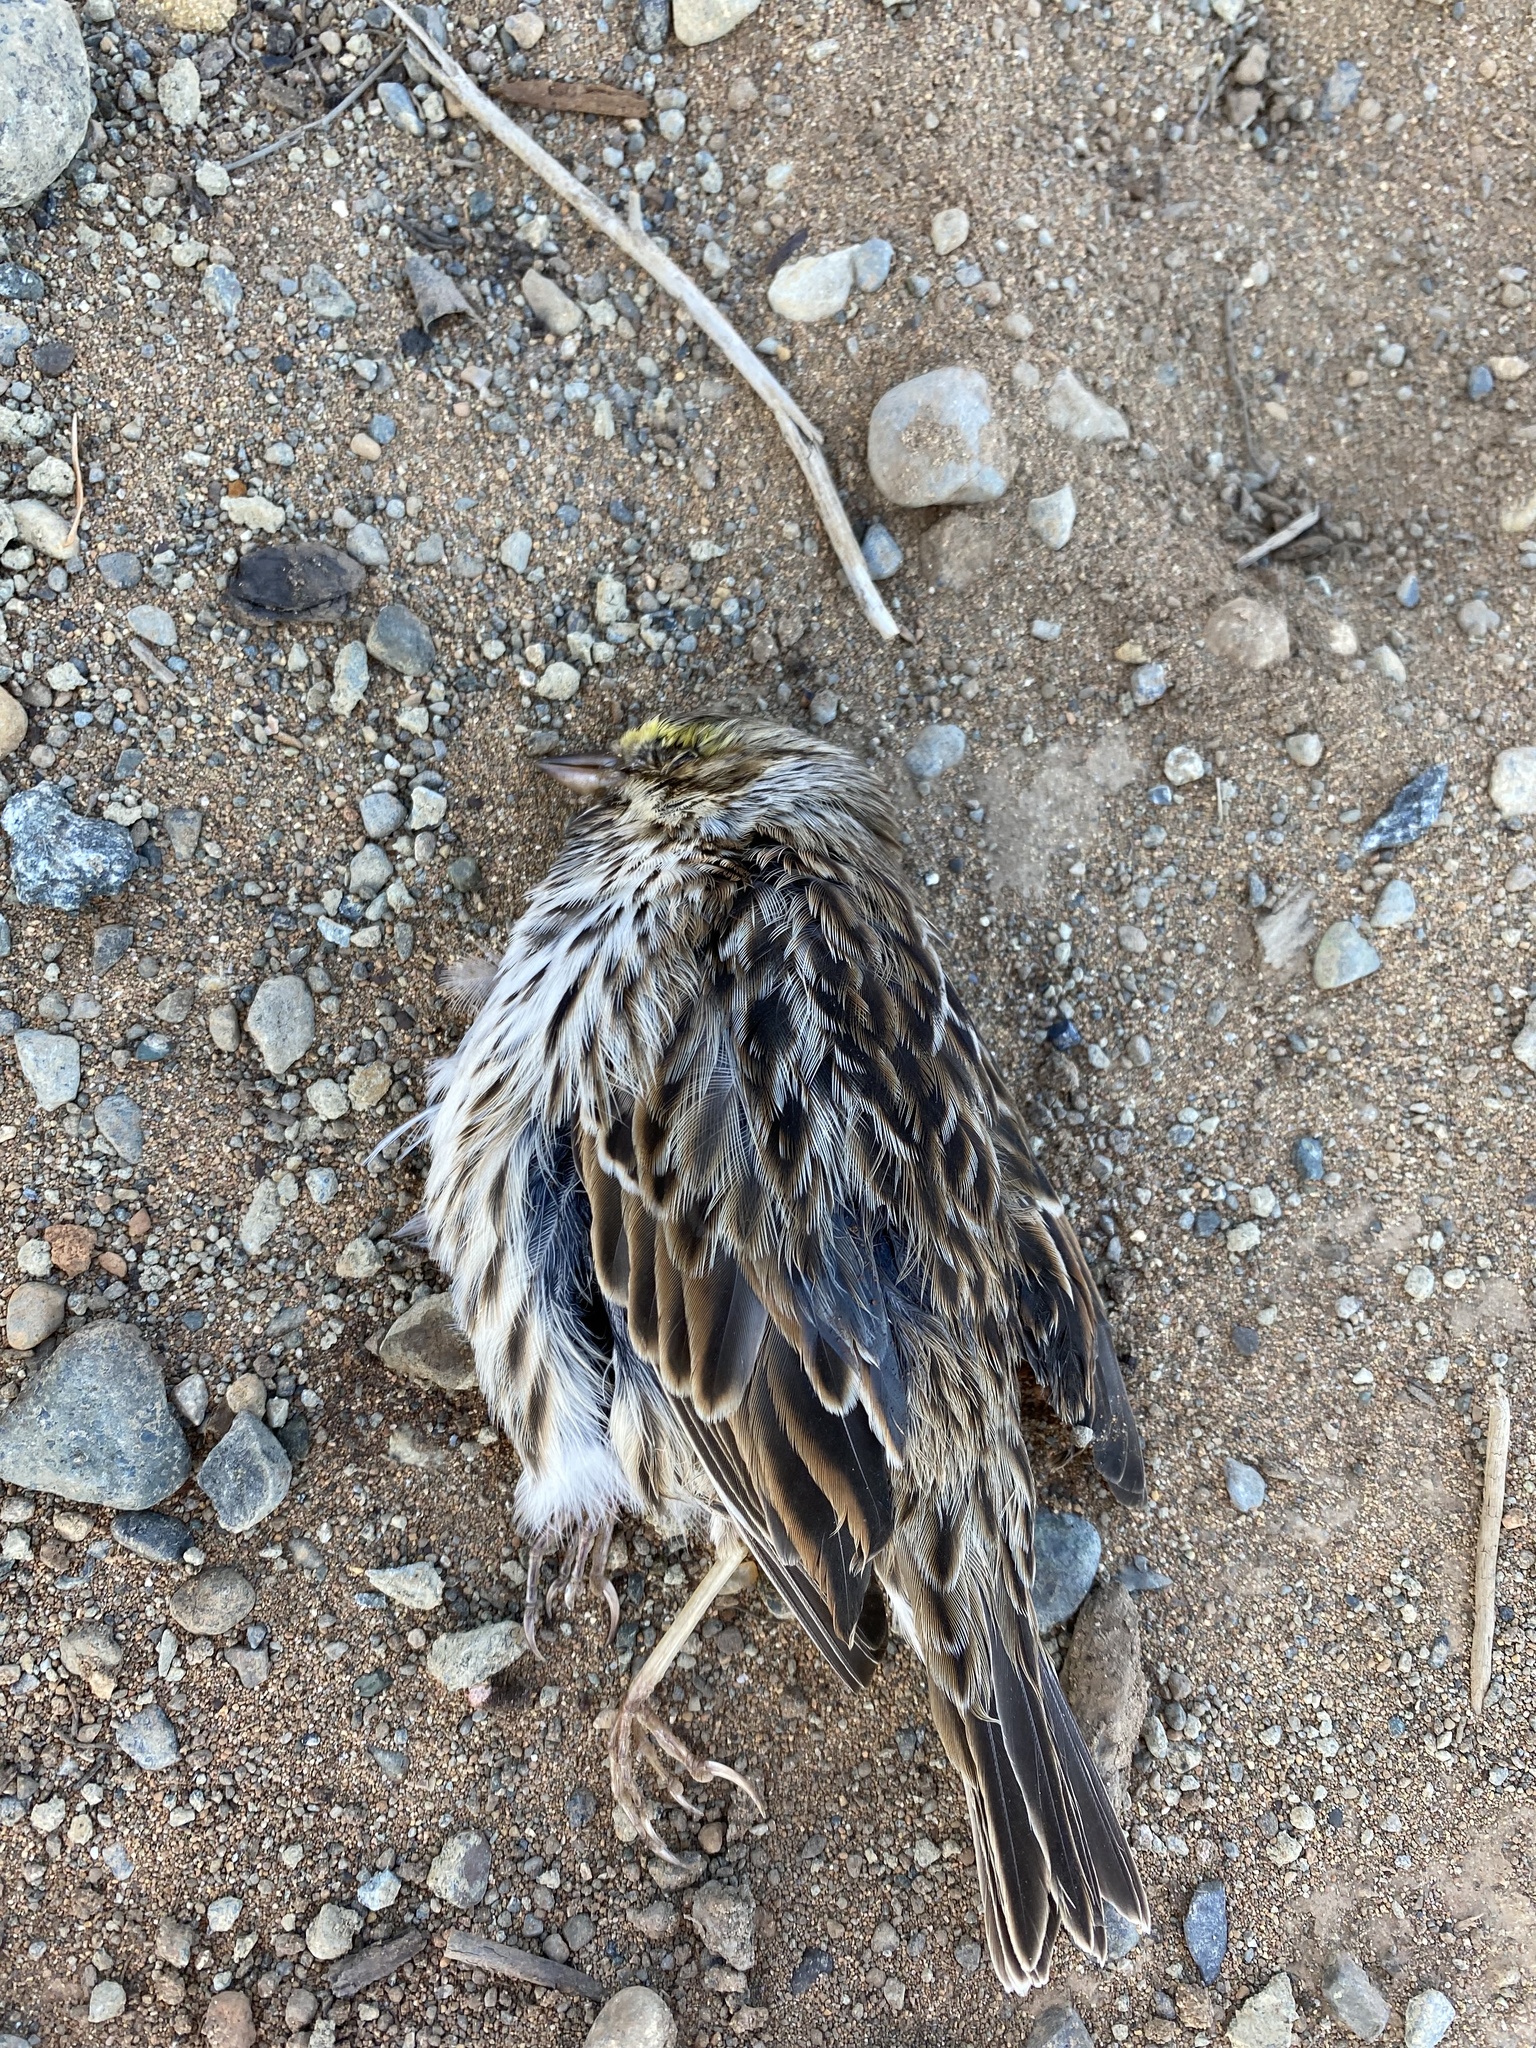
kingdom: Animalia
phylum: Chordata
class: Aves
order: Passeriformes
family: Passerellidae
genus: Passerculus
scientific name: Passerculus sandwichensis
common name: Savannah sparrow
